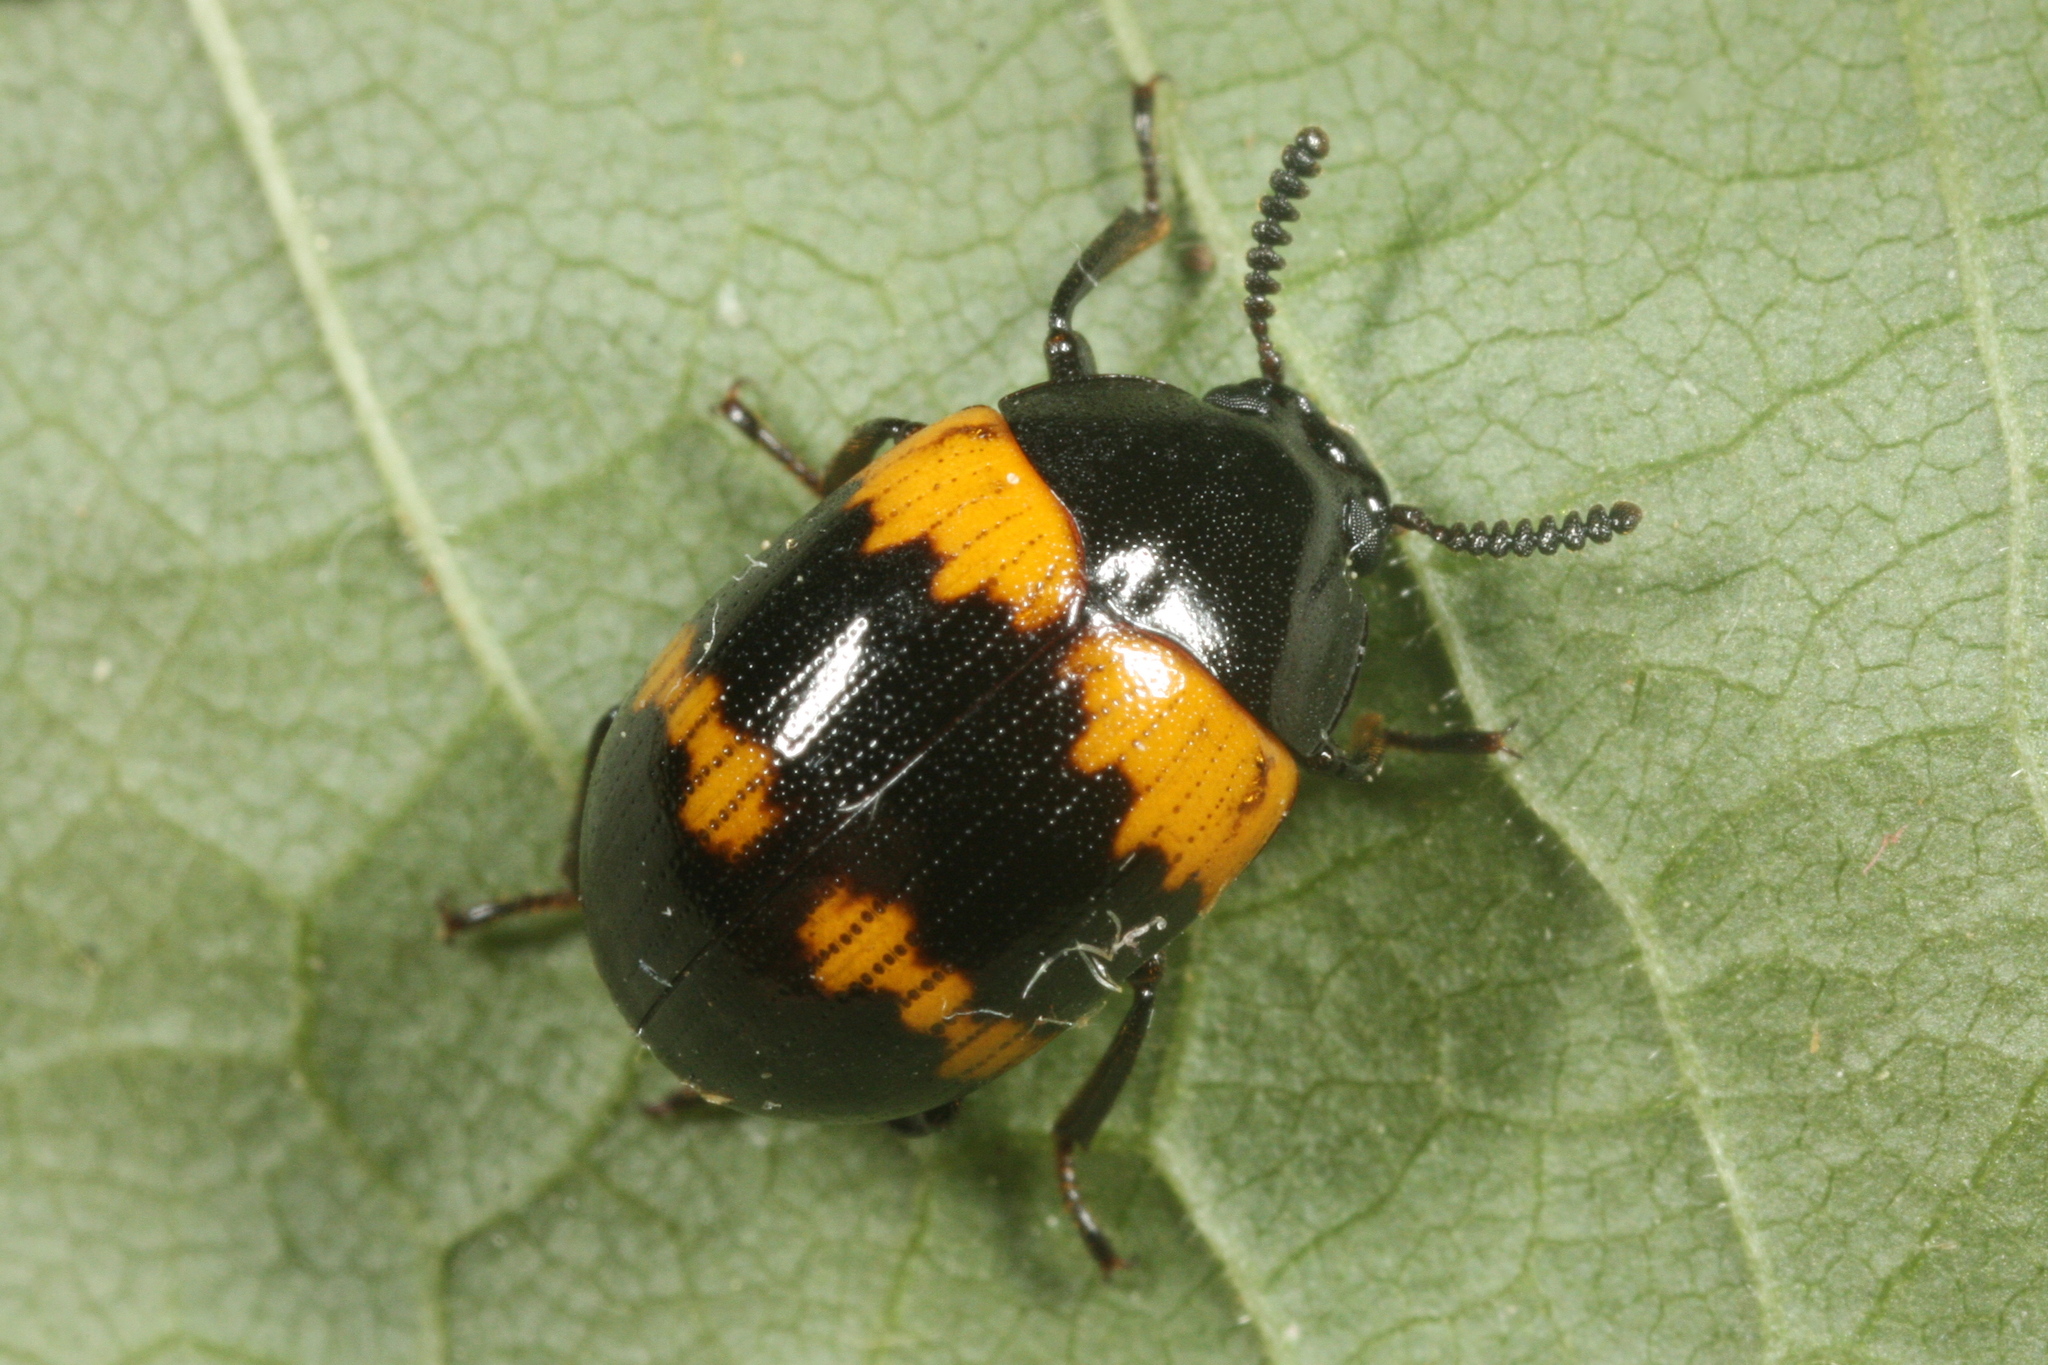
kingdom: Animalia
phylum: Arthropoda
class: Insecta
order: Coleoptera
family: Tenebrionidae
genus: Diaperis
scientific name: Diaperis boleti
